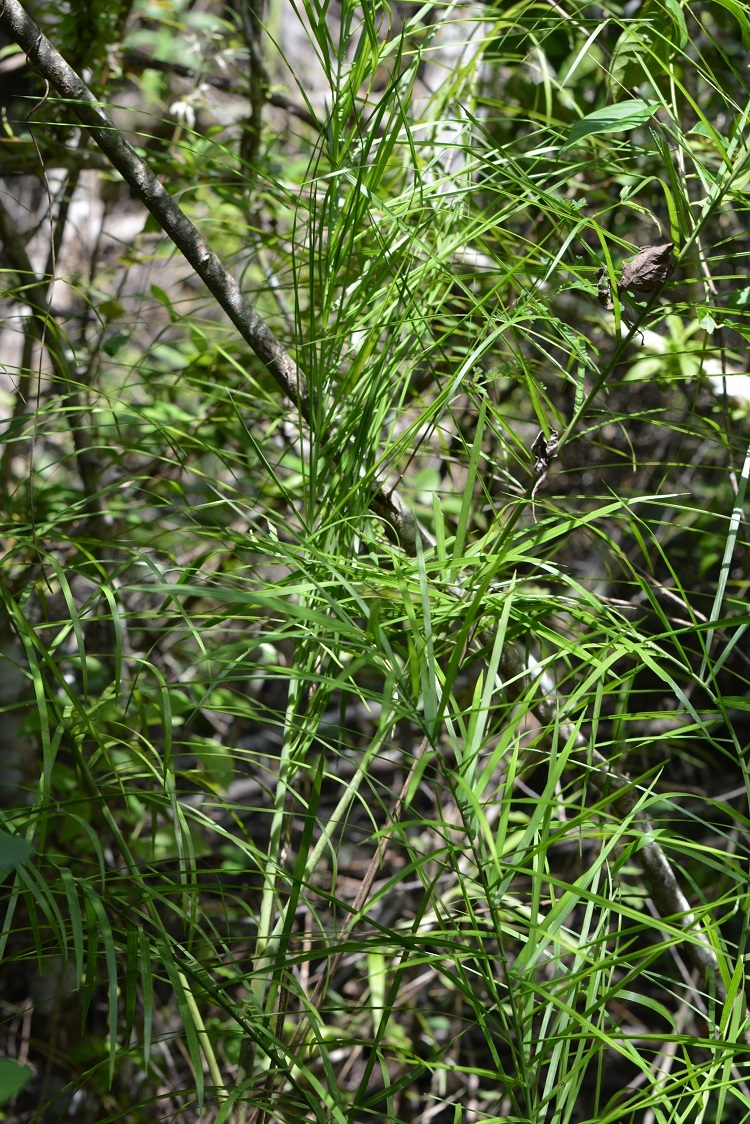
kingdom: Plantae
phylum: Tracheophyta
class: Liliopsida
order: Arecales
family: Arecaceae
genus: Chamaedorea
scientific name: Chamaedorea glaucifolia
